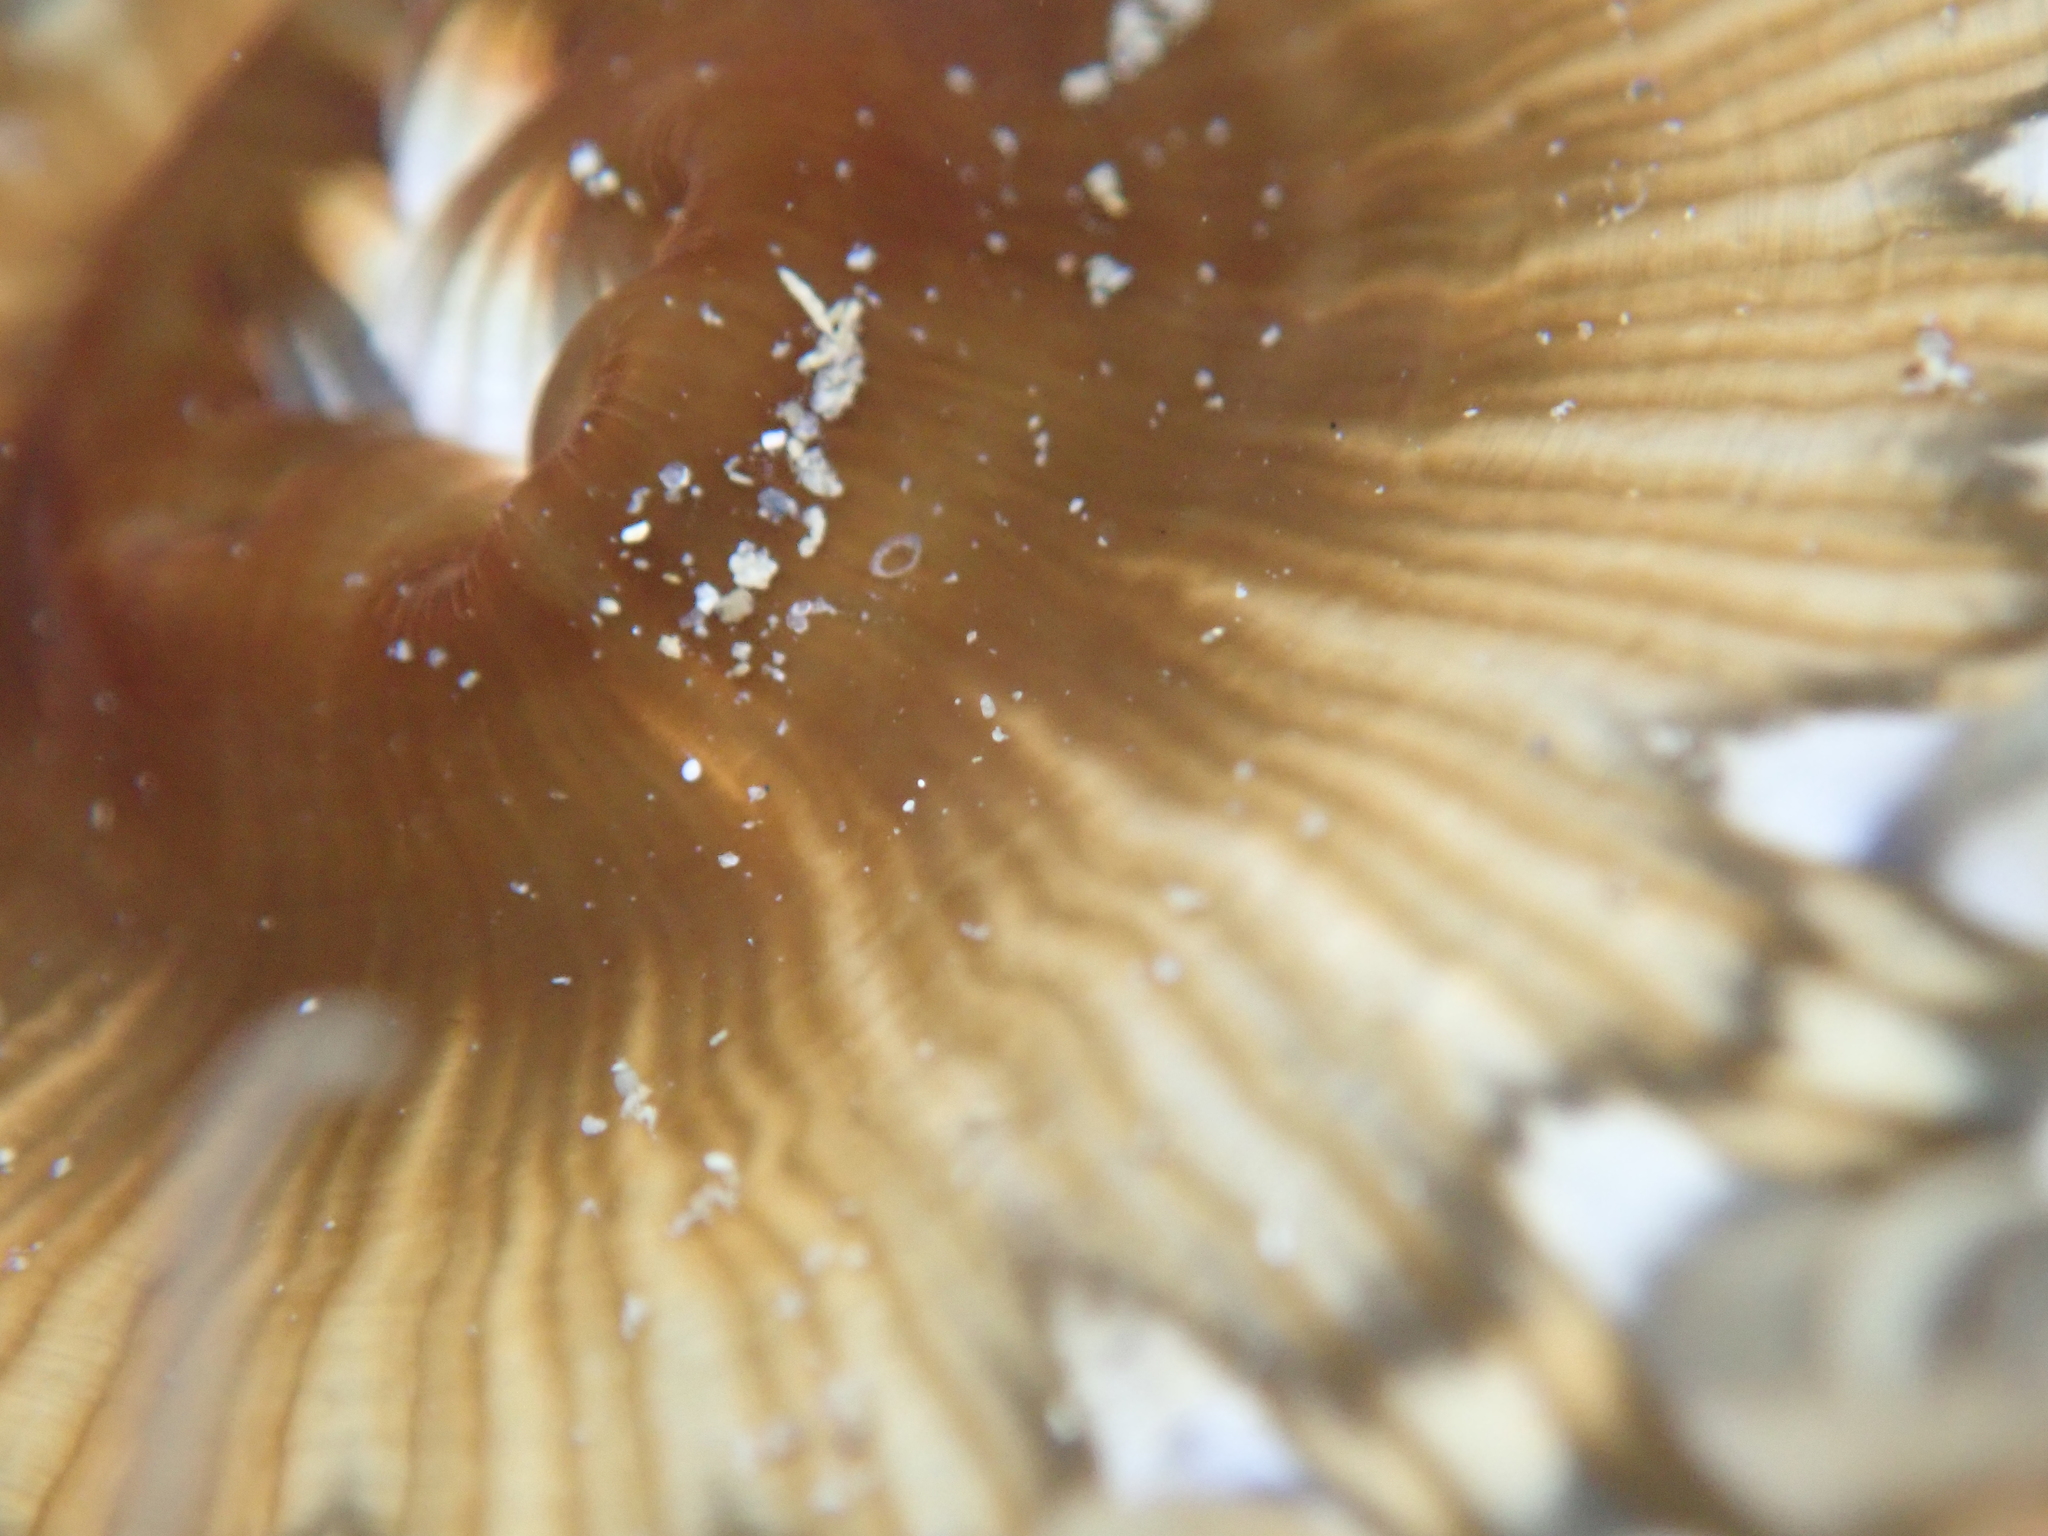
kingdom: Animalia
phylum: Cnidaria
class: Anthozoa
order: Actiniaria
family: Actiniidae
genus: Oulactis
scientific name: Oulactis muscosa
